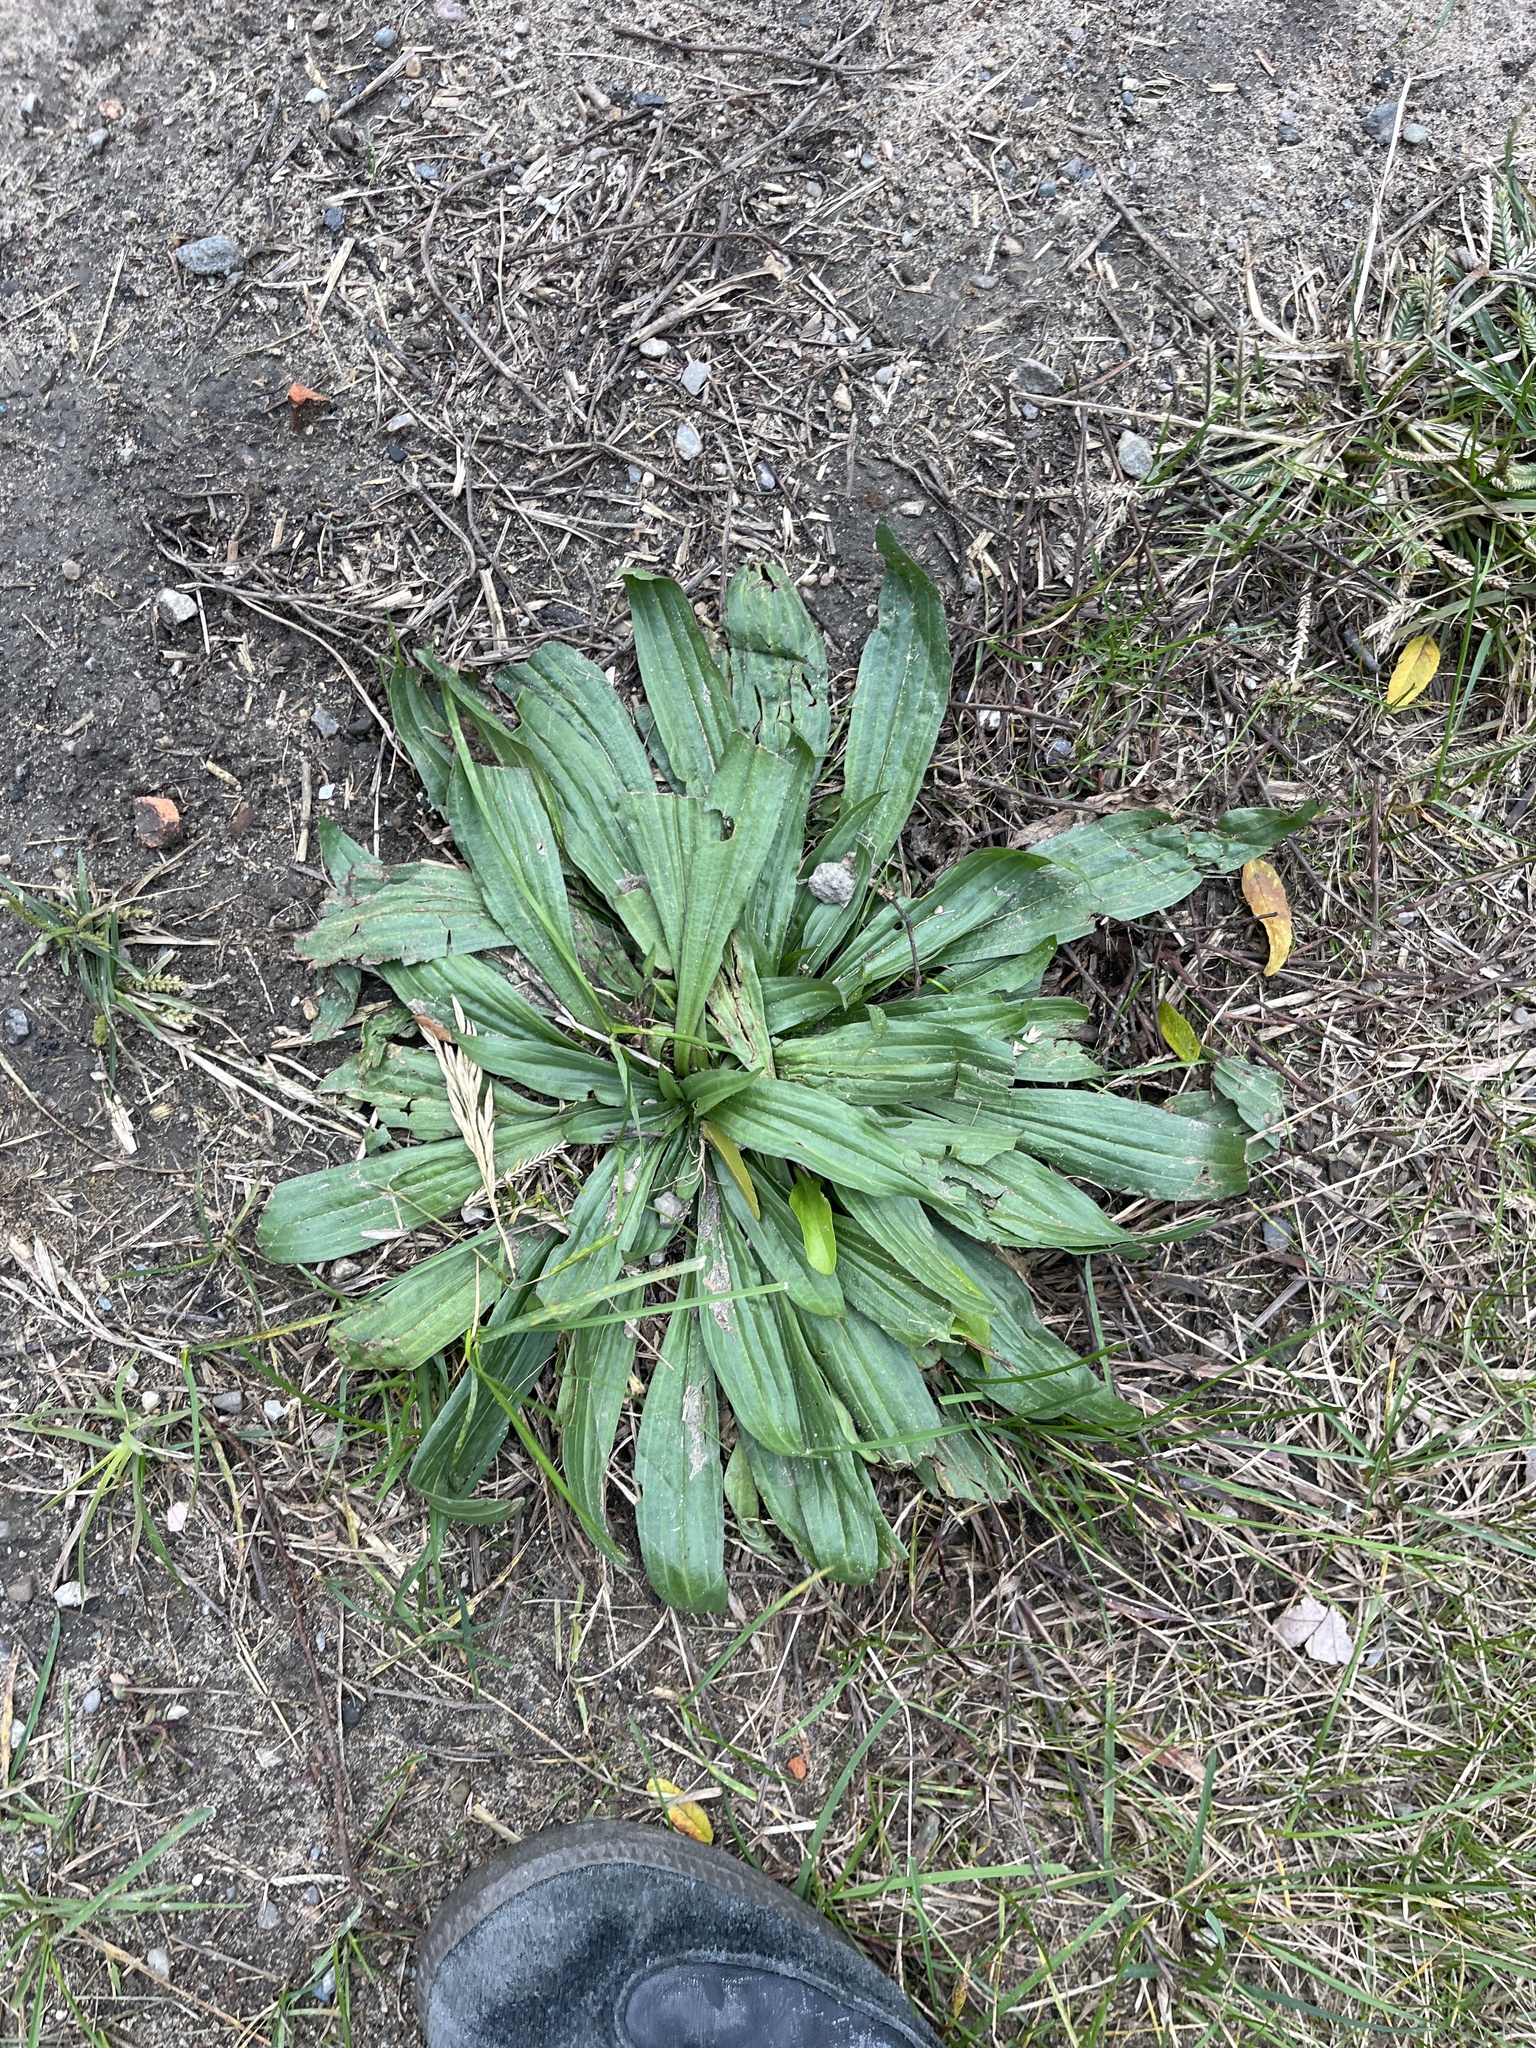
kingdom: Plantae
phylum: Tracheophyta
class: Magnoliopsida
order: Lamiales
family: Plantaginaceae
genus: Plantago
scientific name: Plantago lanceolata
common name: Ribwort plantain
